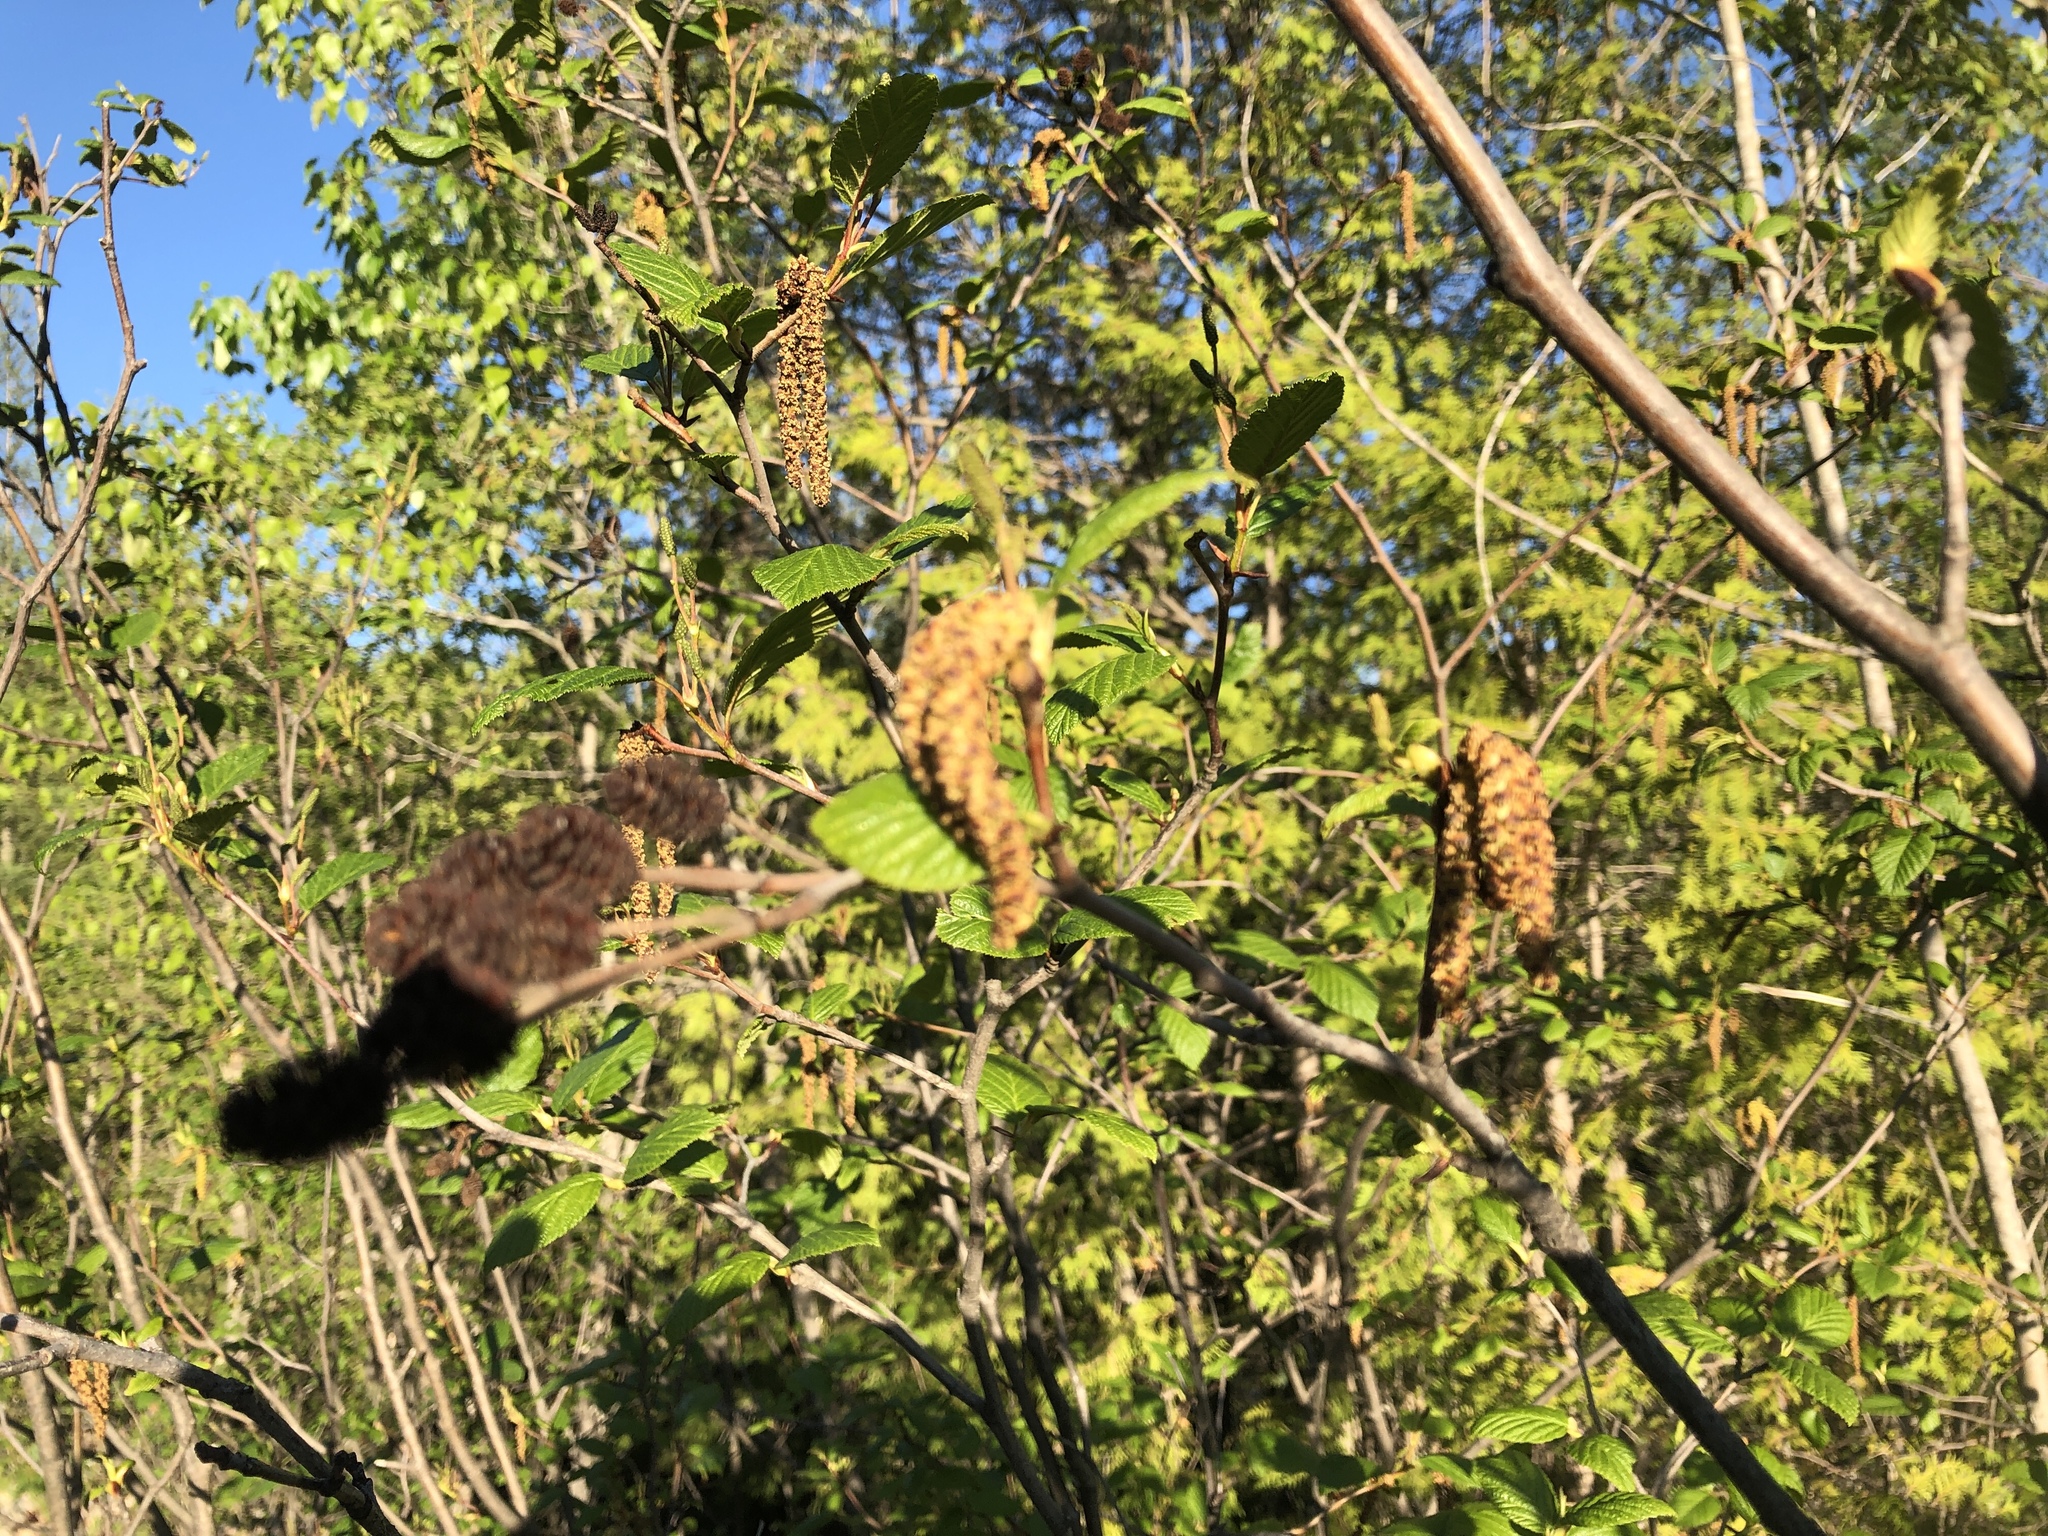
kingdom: Plantae
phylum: Tracheophyta
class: Magnoliopsida
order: Fagales
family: Betulaceae
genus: Alnus
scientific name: Alnus incana
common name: Grey alder
